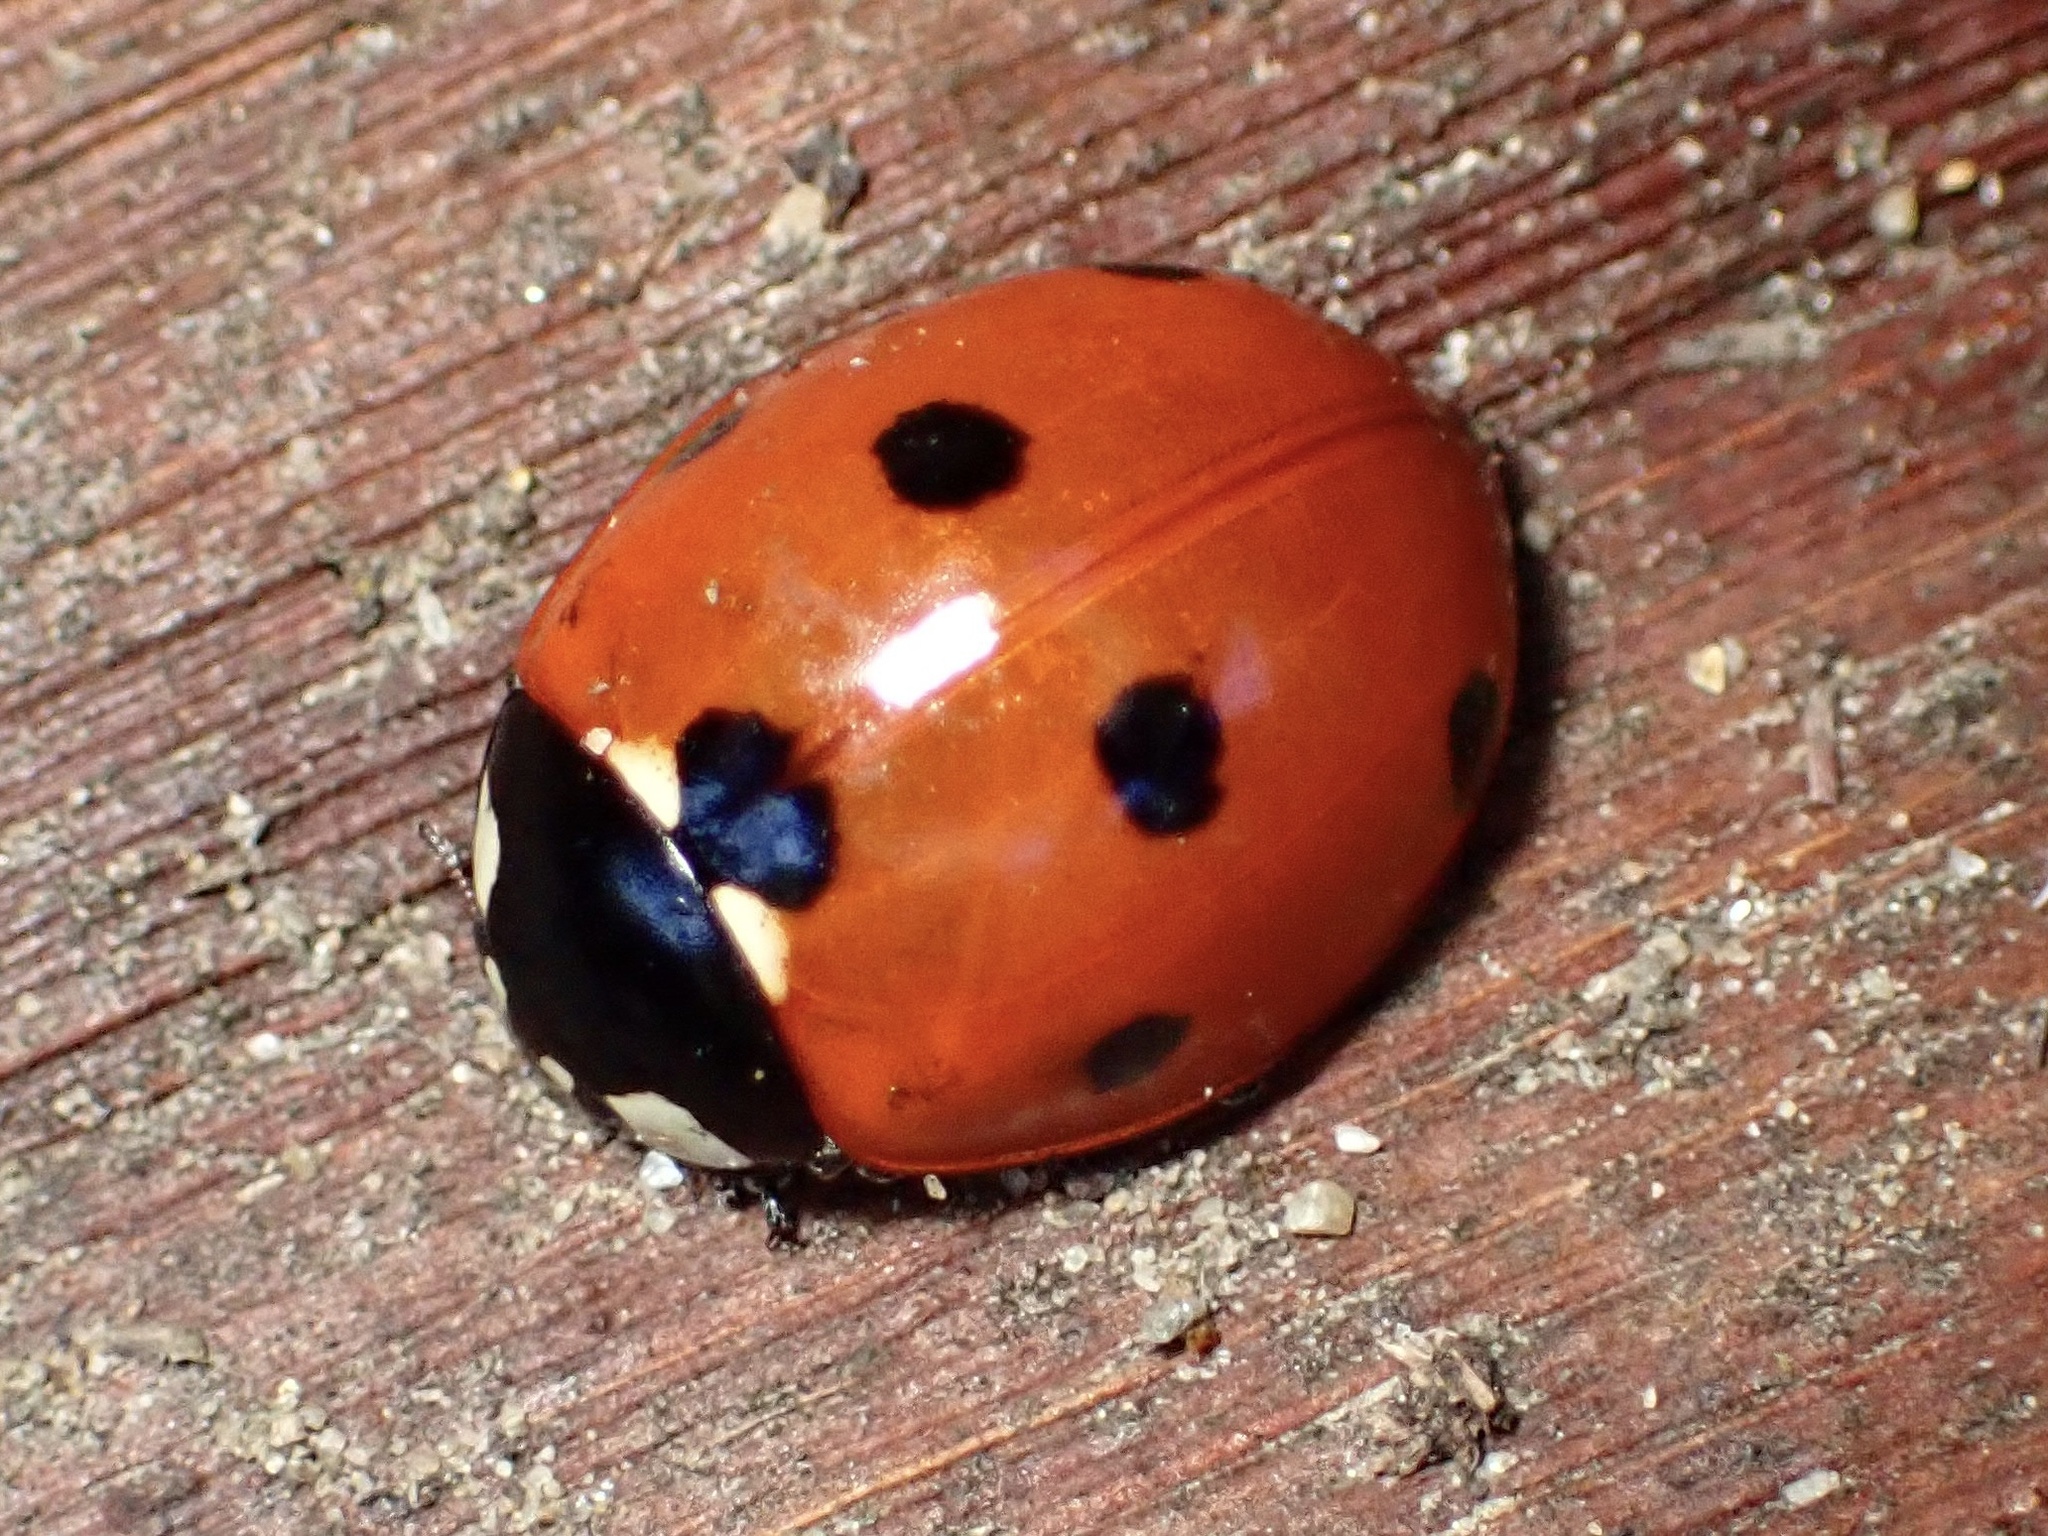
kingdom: Animalia
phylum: Arthropoda
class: Insecta
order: Coleoptera
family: Coccinellidae
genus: Coccinella
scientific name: Coccinella septempunctata
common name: Sevenspotted lady beetle
